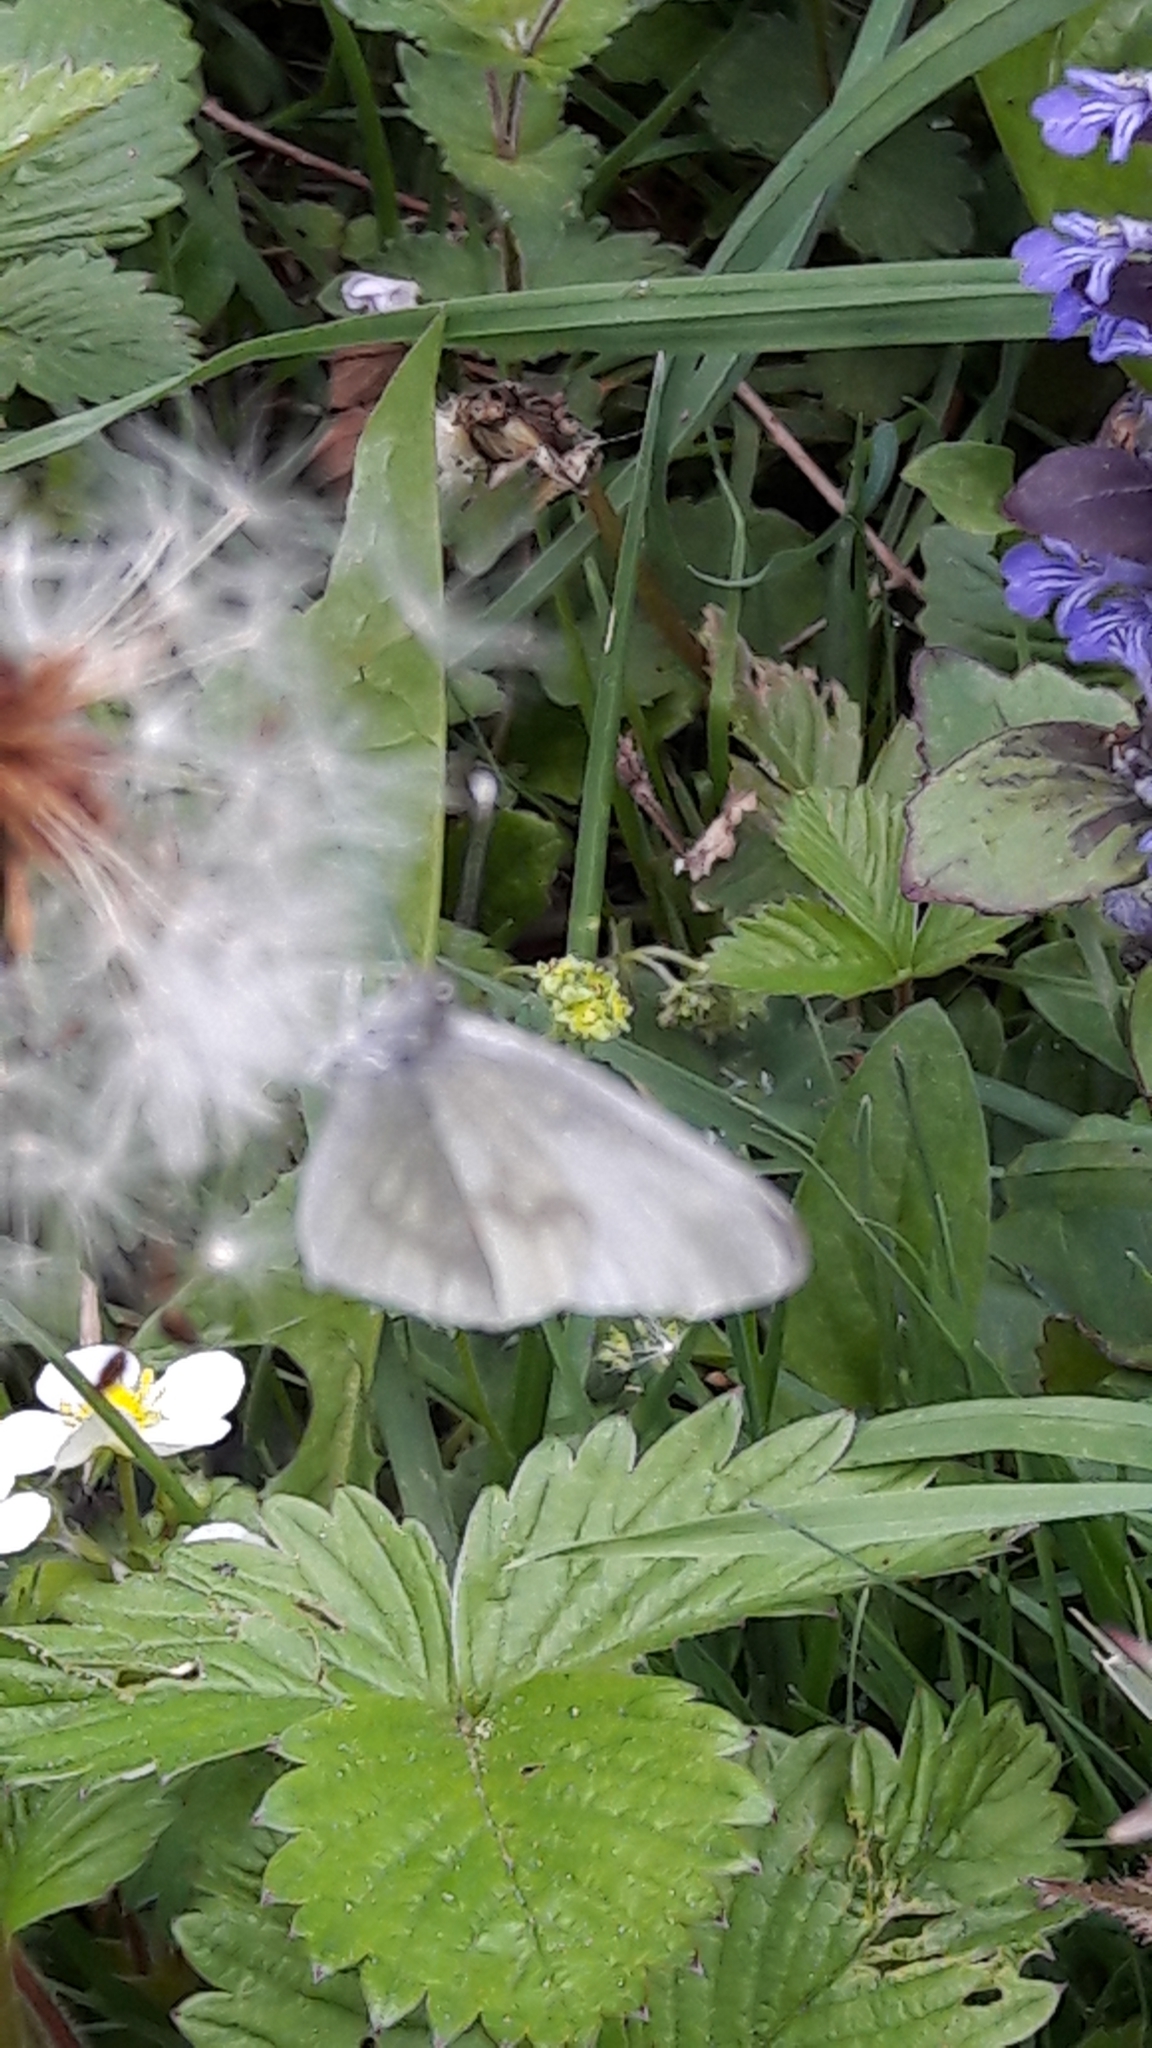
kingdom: Animalia
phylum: Arthropoda
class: Insecta
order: Lepidoptera
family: Pieridae
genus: Leptidea
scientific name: Leptidea
